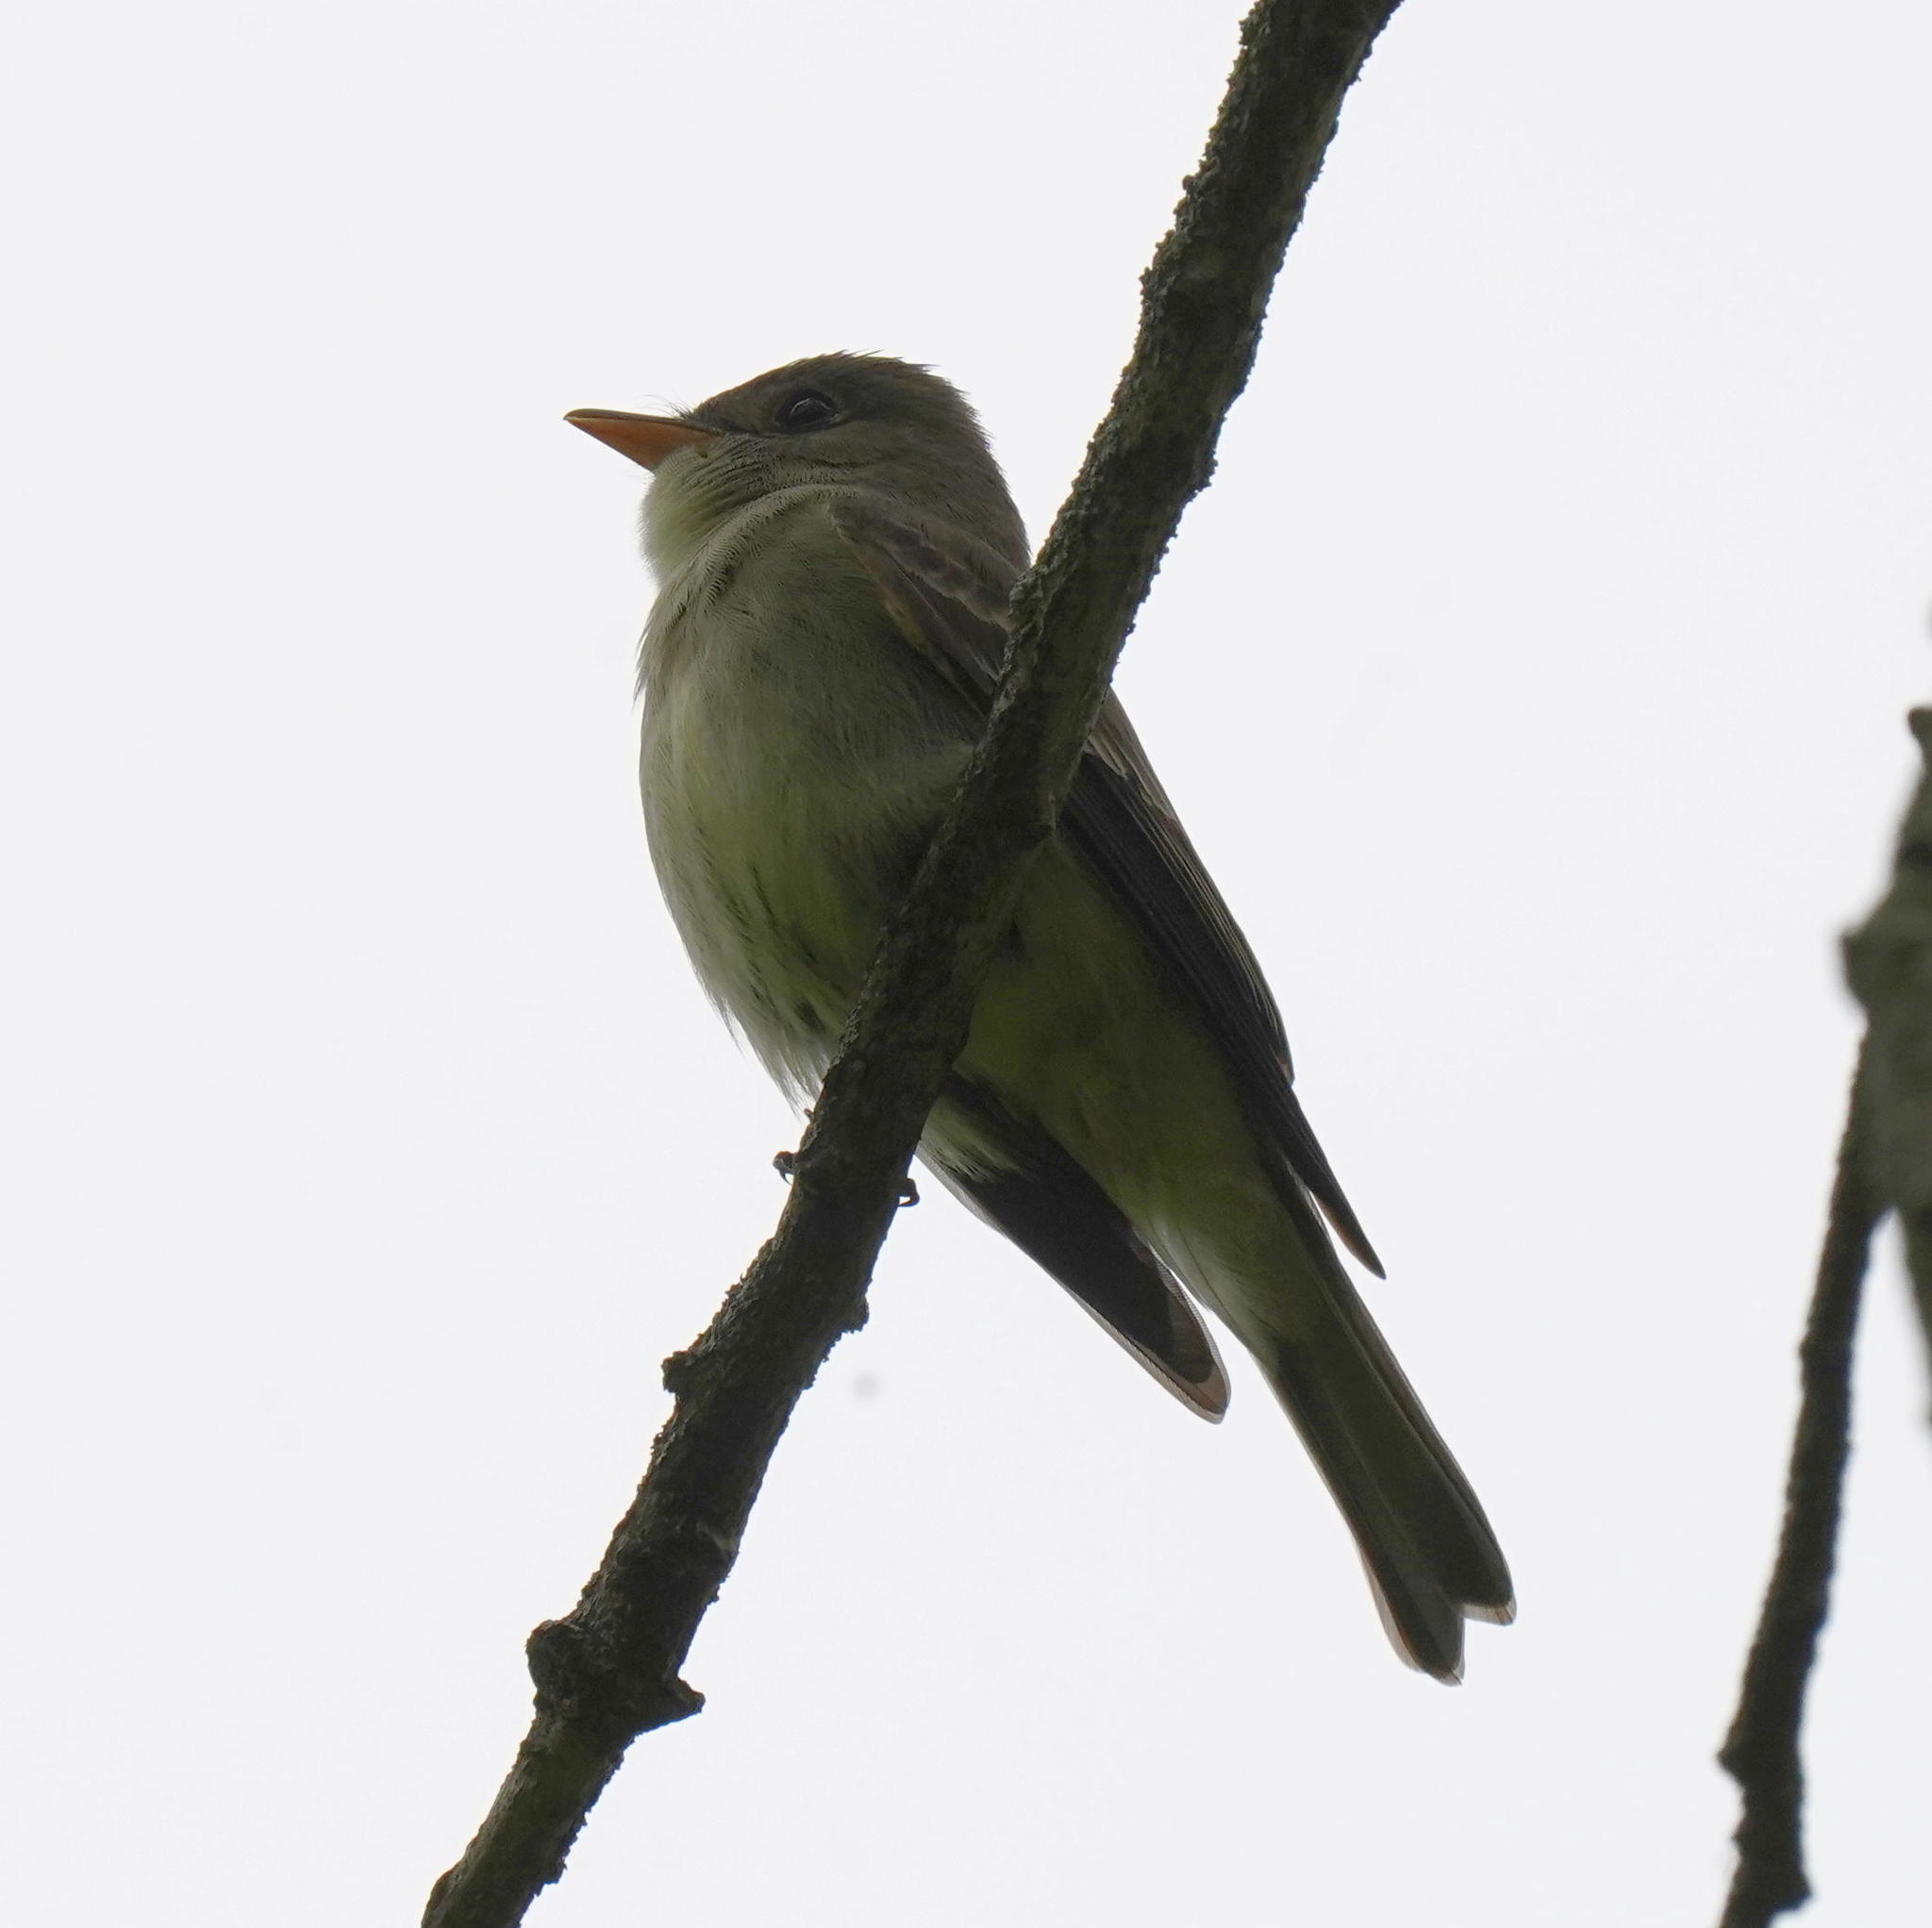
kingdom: Animalia
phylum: Chordata
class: Aves
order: Passeriformes
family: Tyrannidae
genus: Contopus
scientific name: Contopus virens
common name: Eastern wood-pewee
